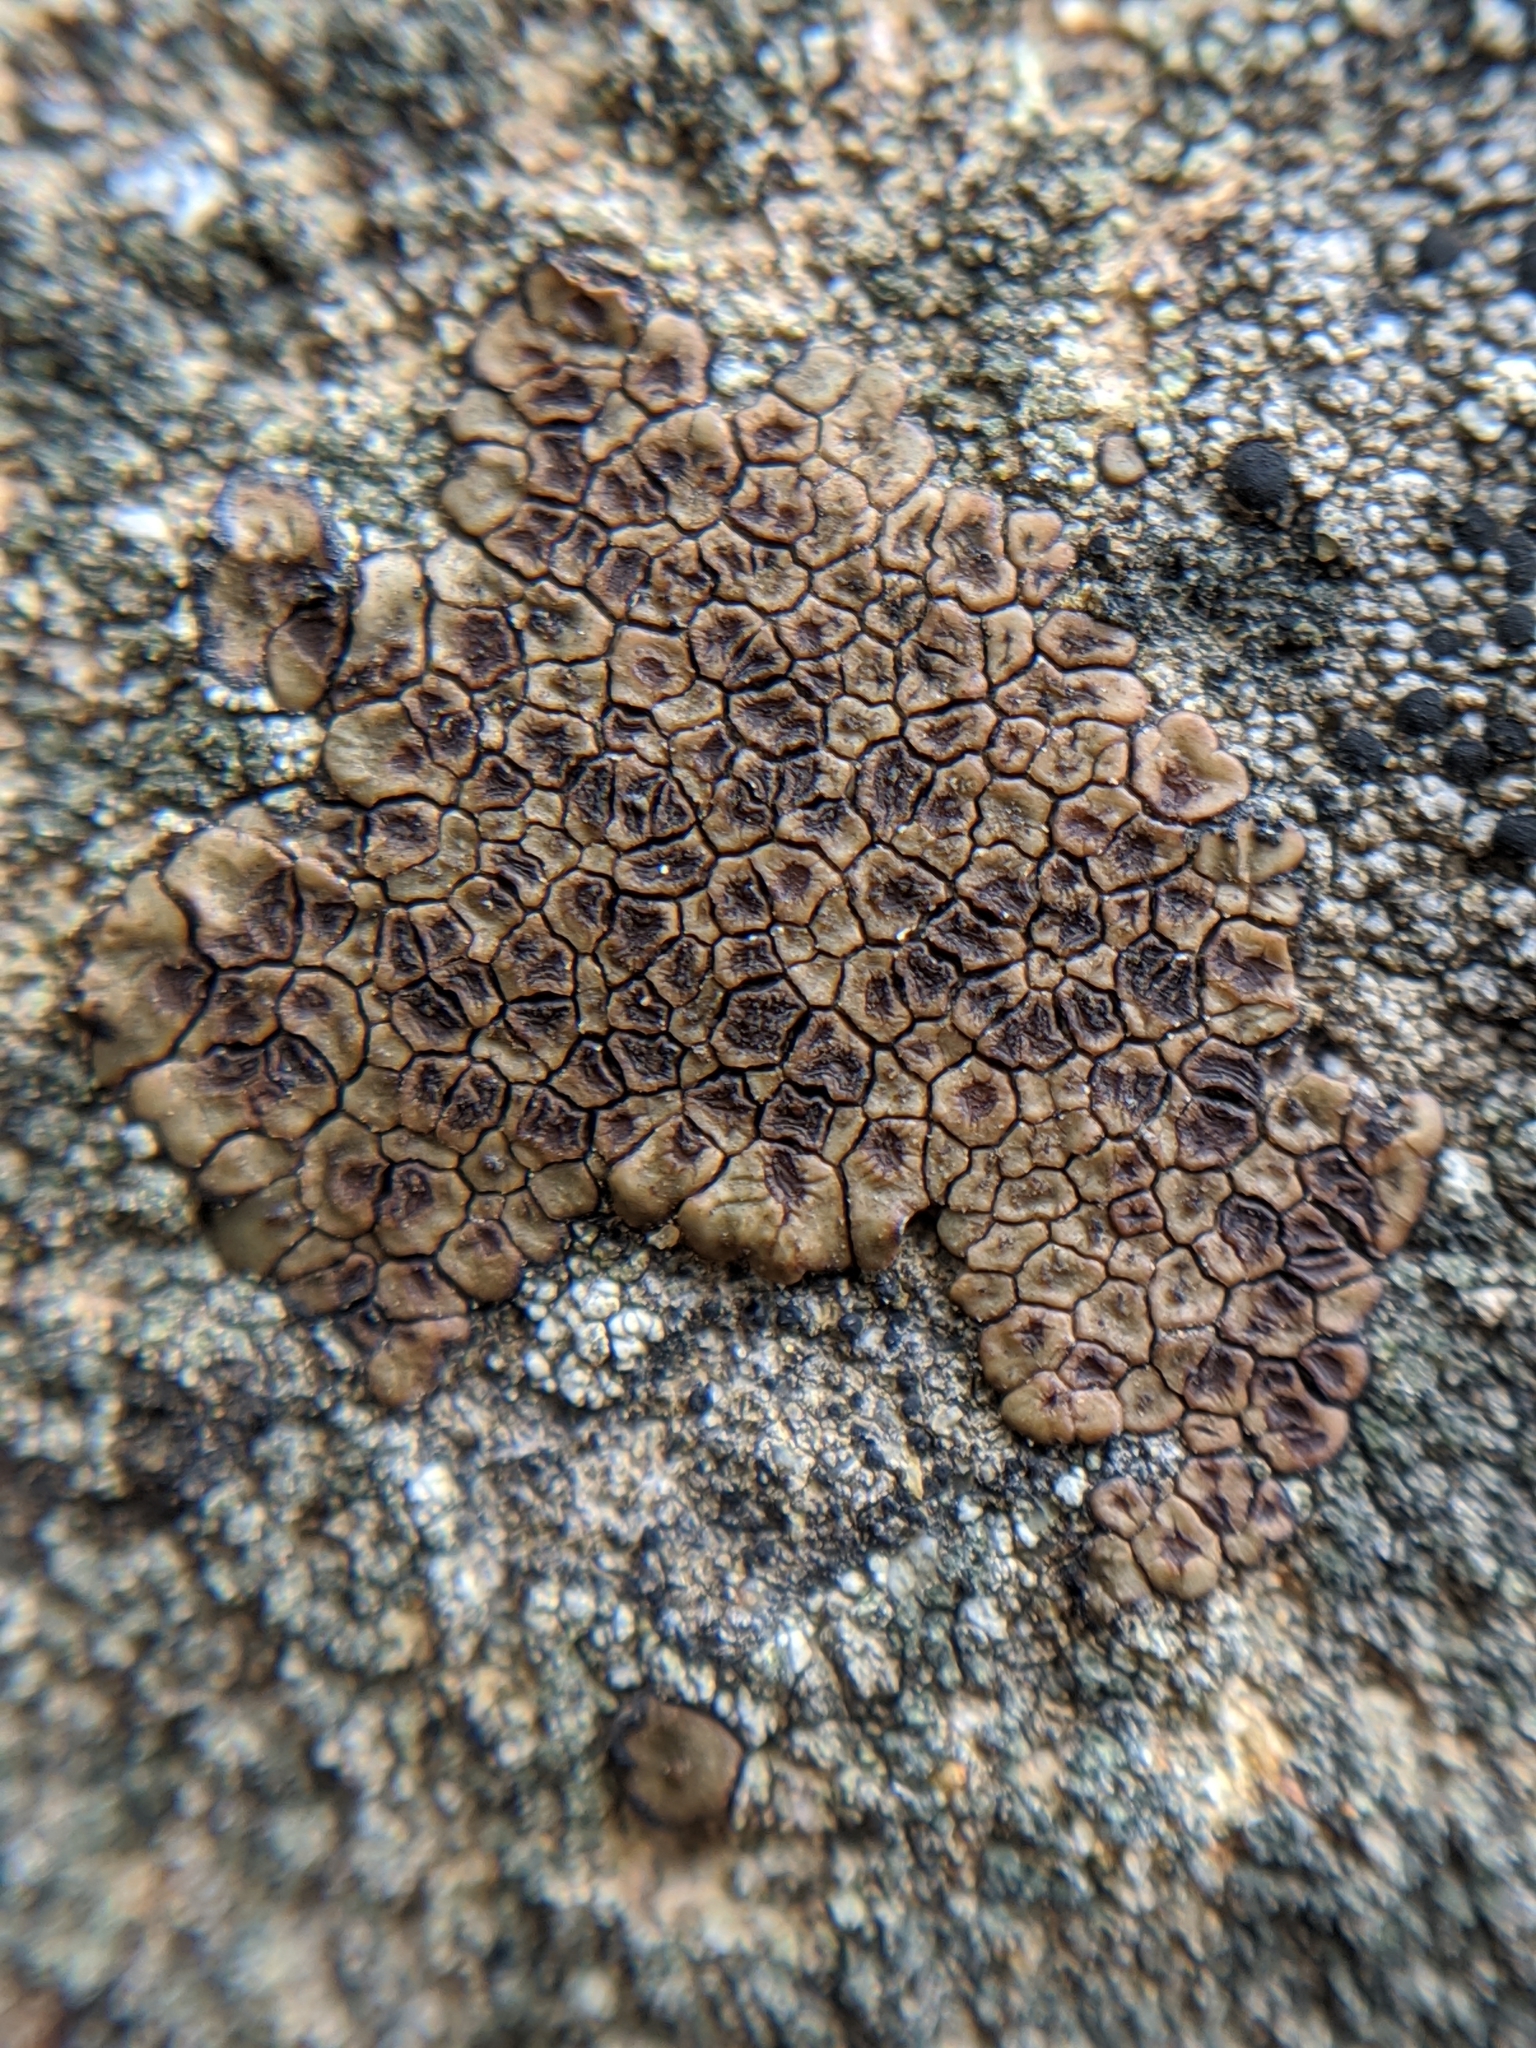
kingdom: Fungi
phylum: Ascomycota
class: Lecanoromycetes
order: Acarosporales
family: Acarosporaceae
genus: Acarospora
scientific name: Acarospora fuscata
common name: Brown cobblestone lichen
